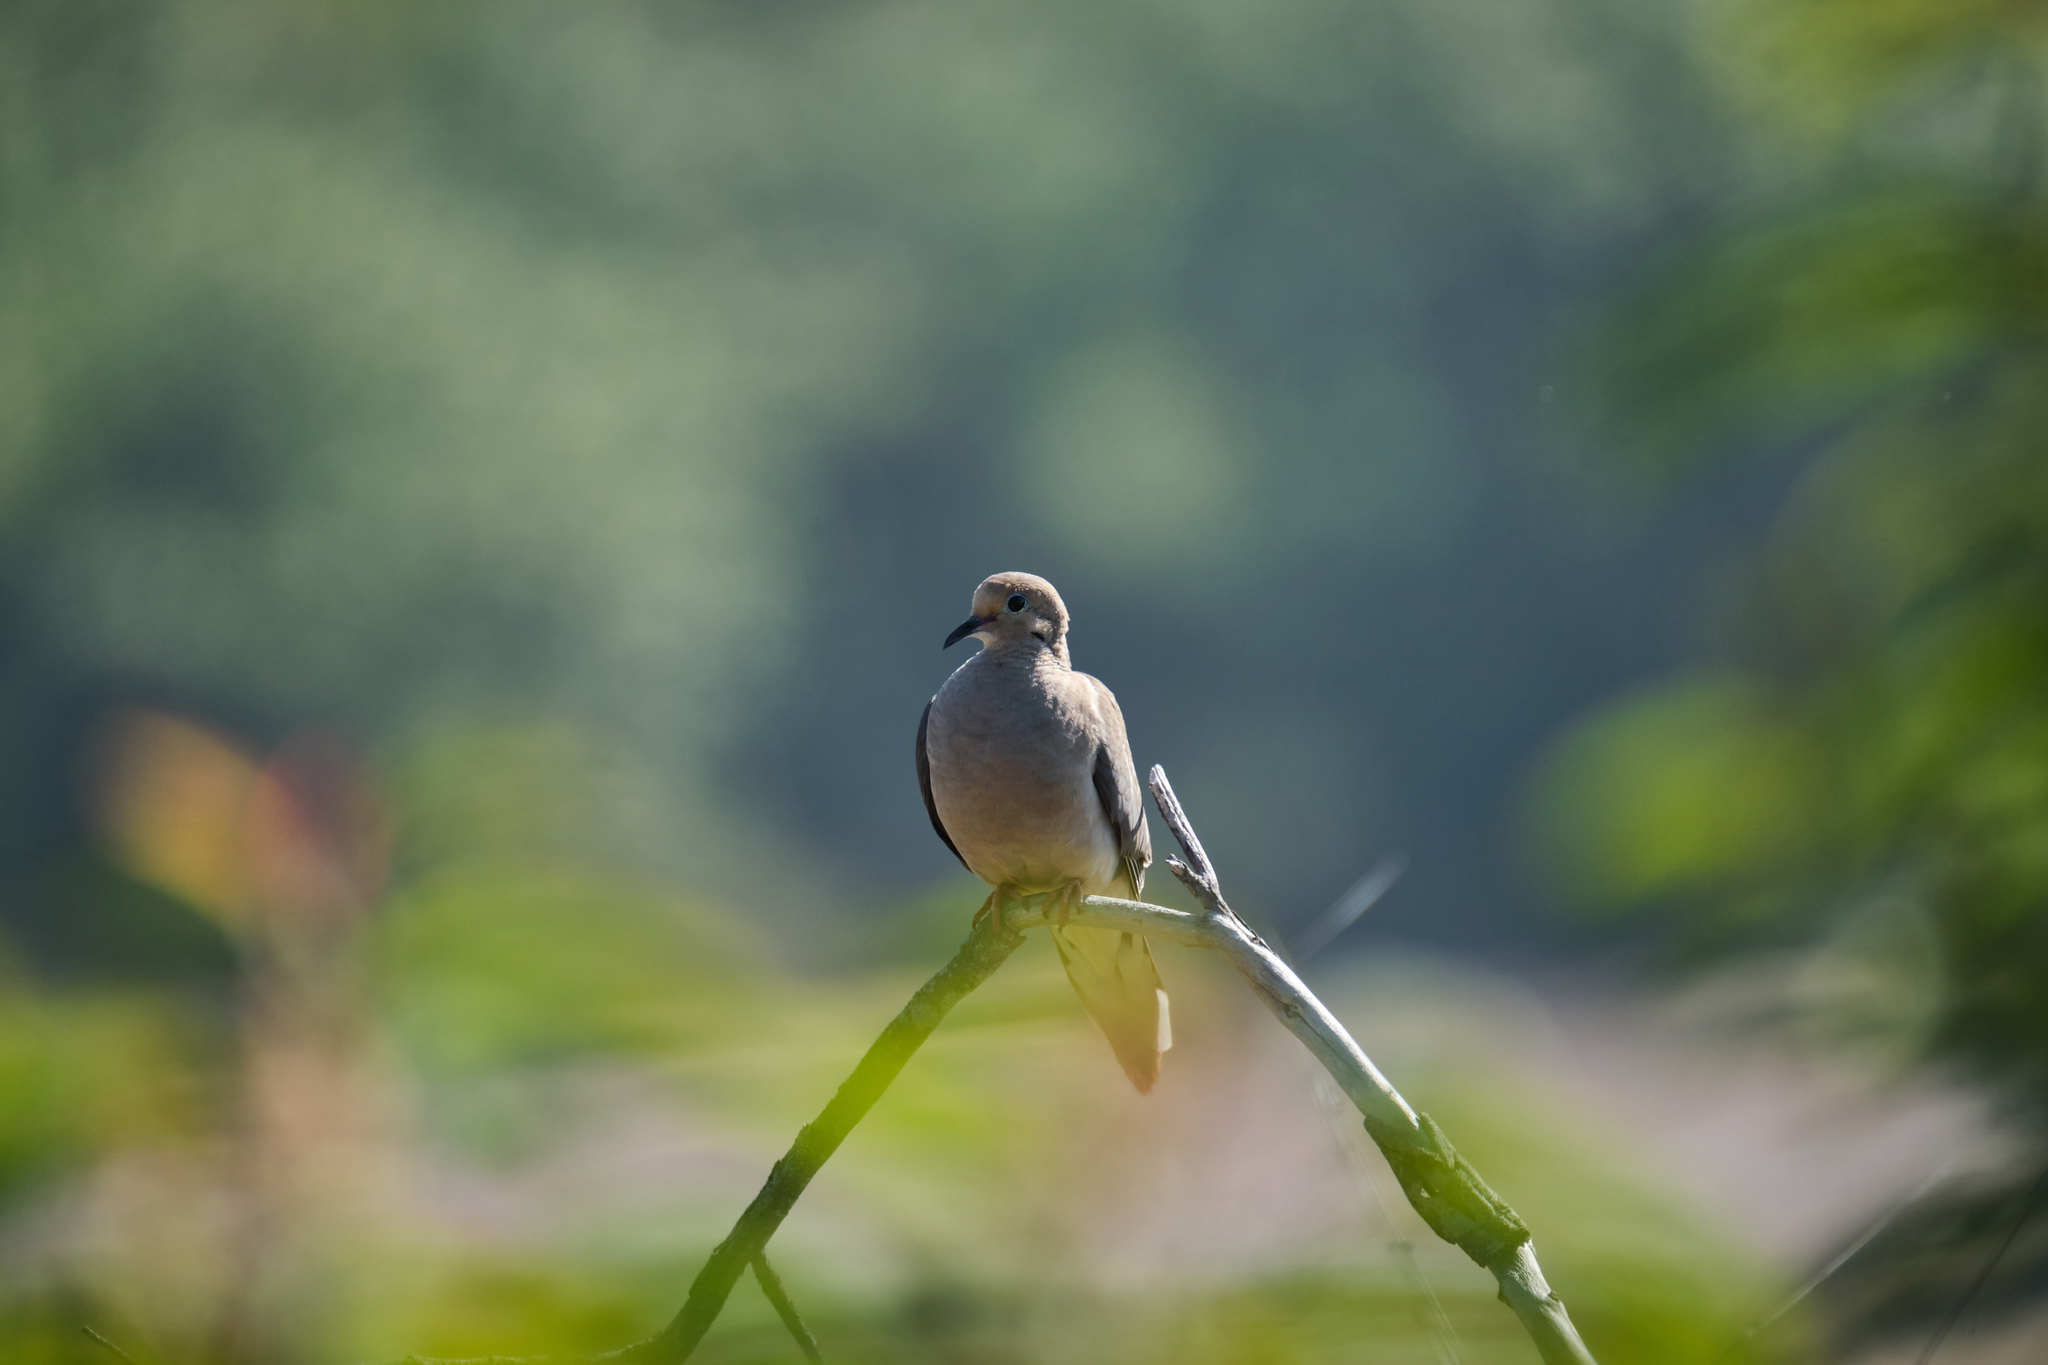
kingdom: Animalia
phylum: Chordata
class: Aves
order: Columbiformes
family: Columbidae
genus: Zenaida
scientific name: Zenaida macroura
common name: Mourning dove
